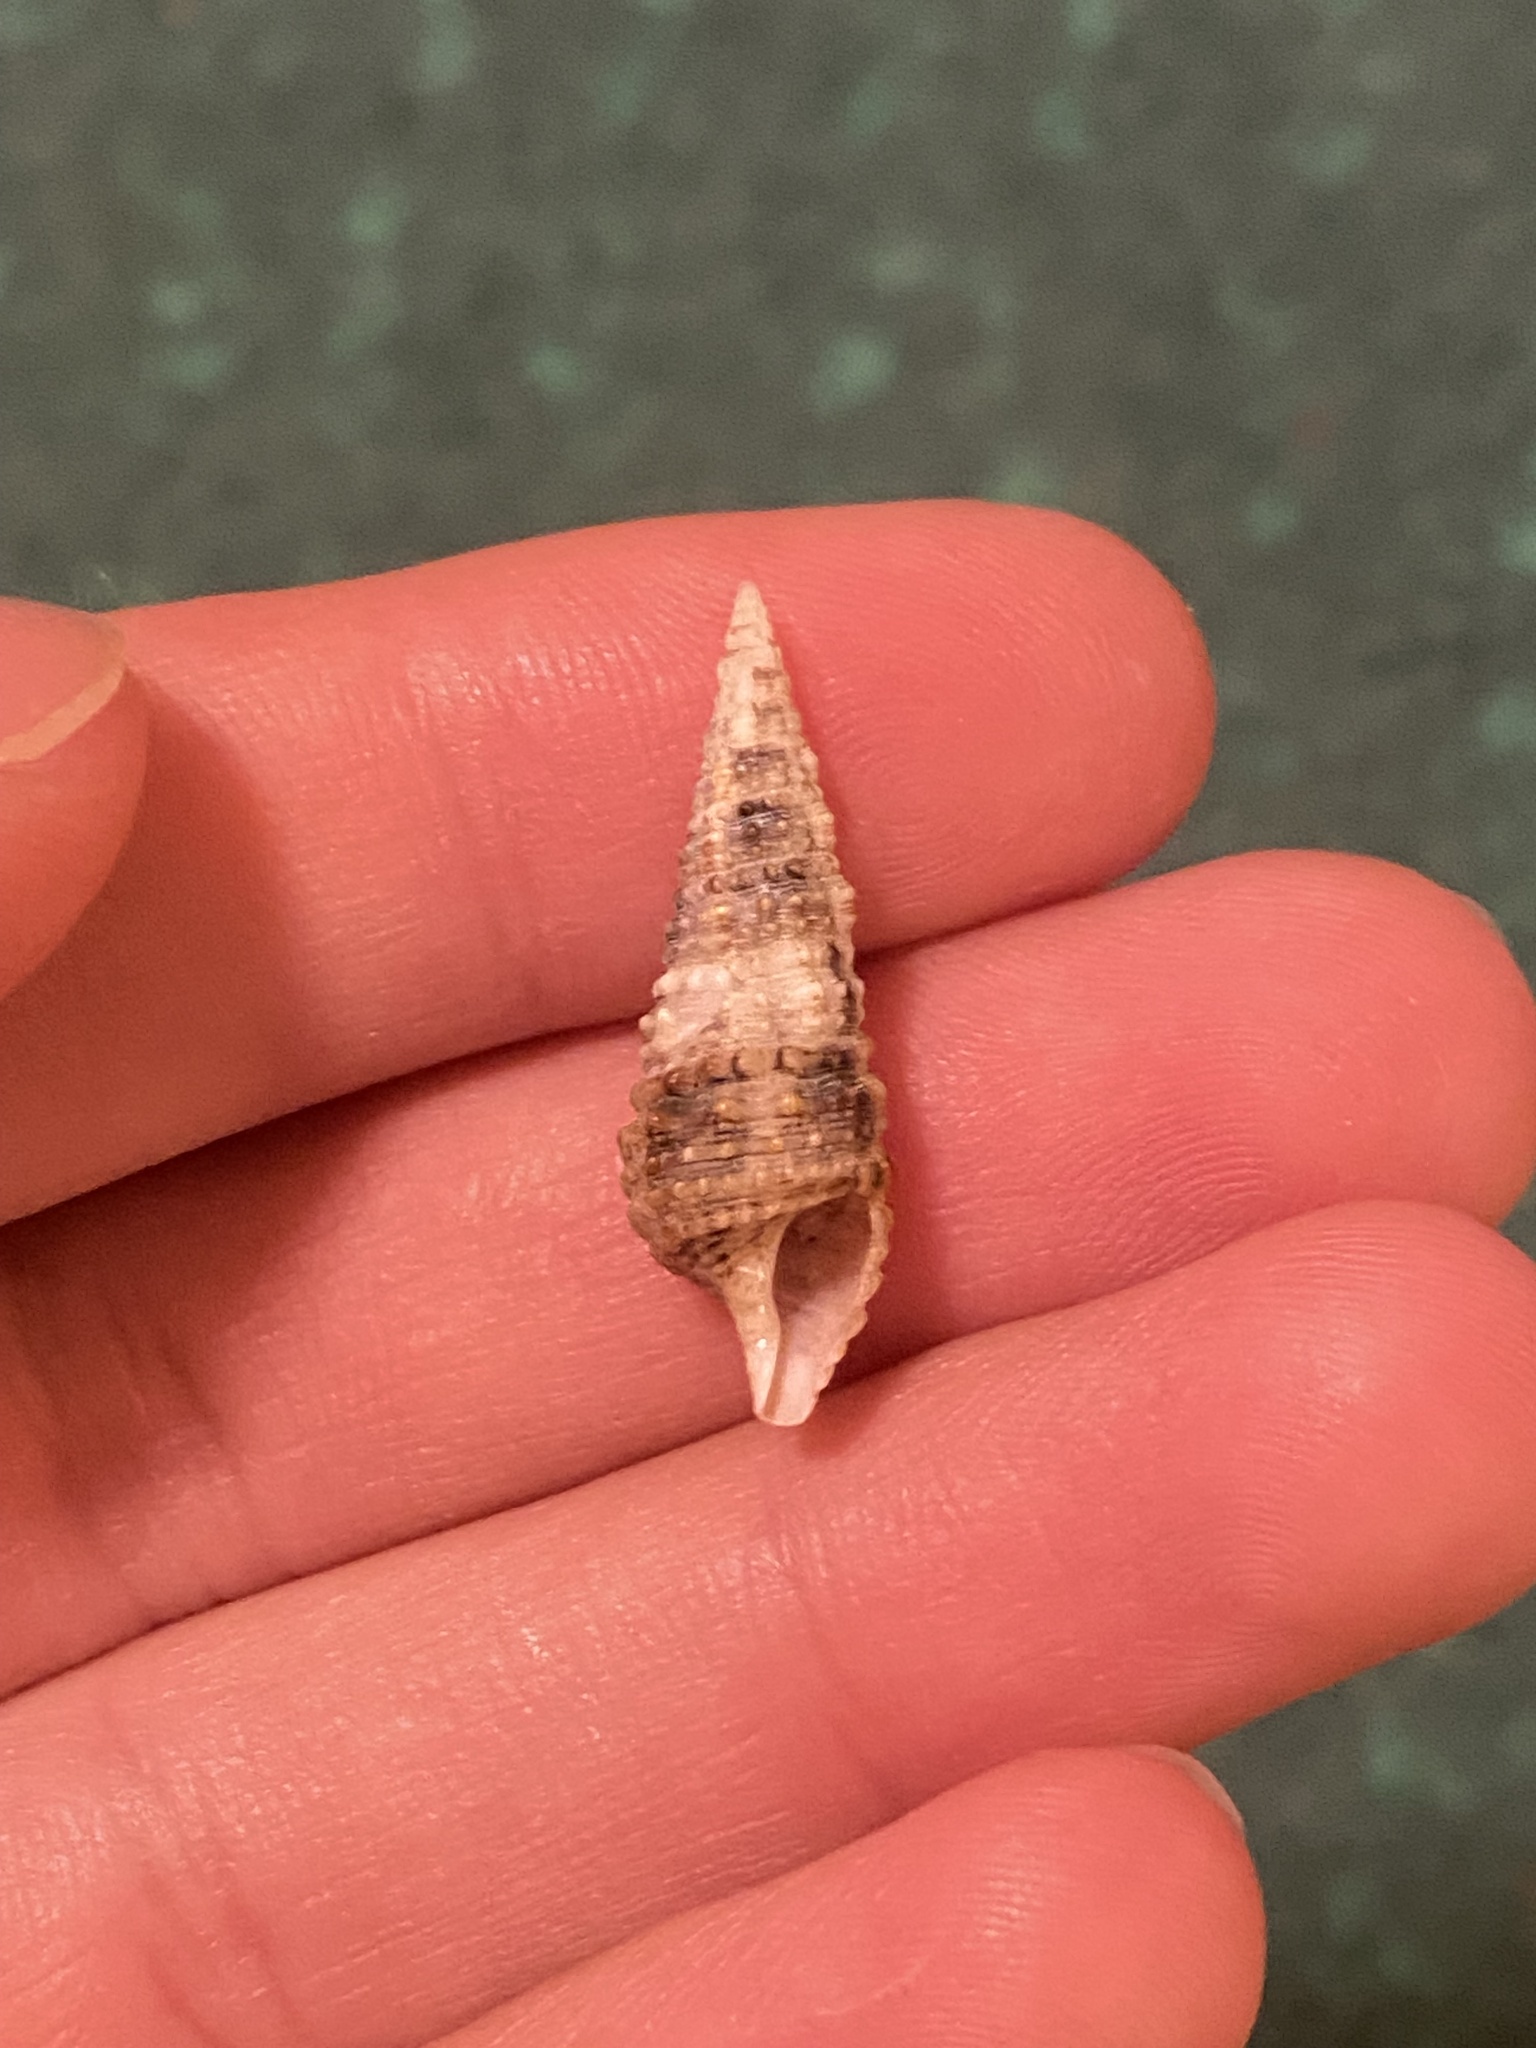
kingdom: Animalia
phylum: Mollusca
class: Gastropoda
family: Cerithiidae
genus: Cerithium
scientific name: Cerithium atratum
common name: Dark cerith
